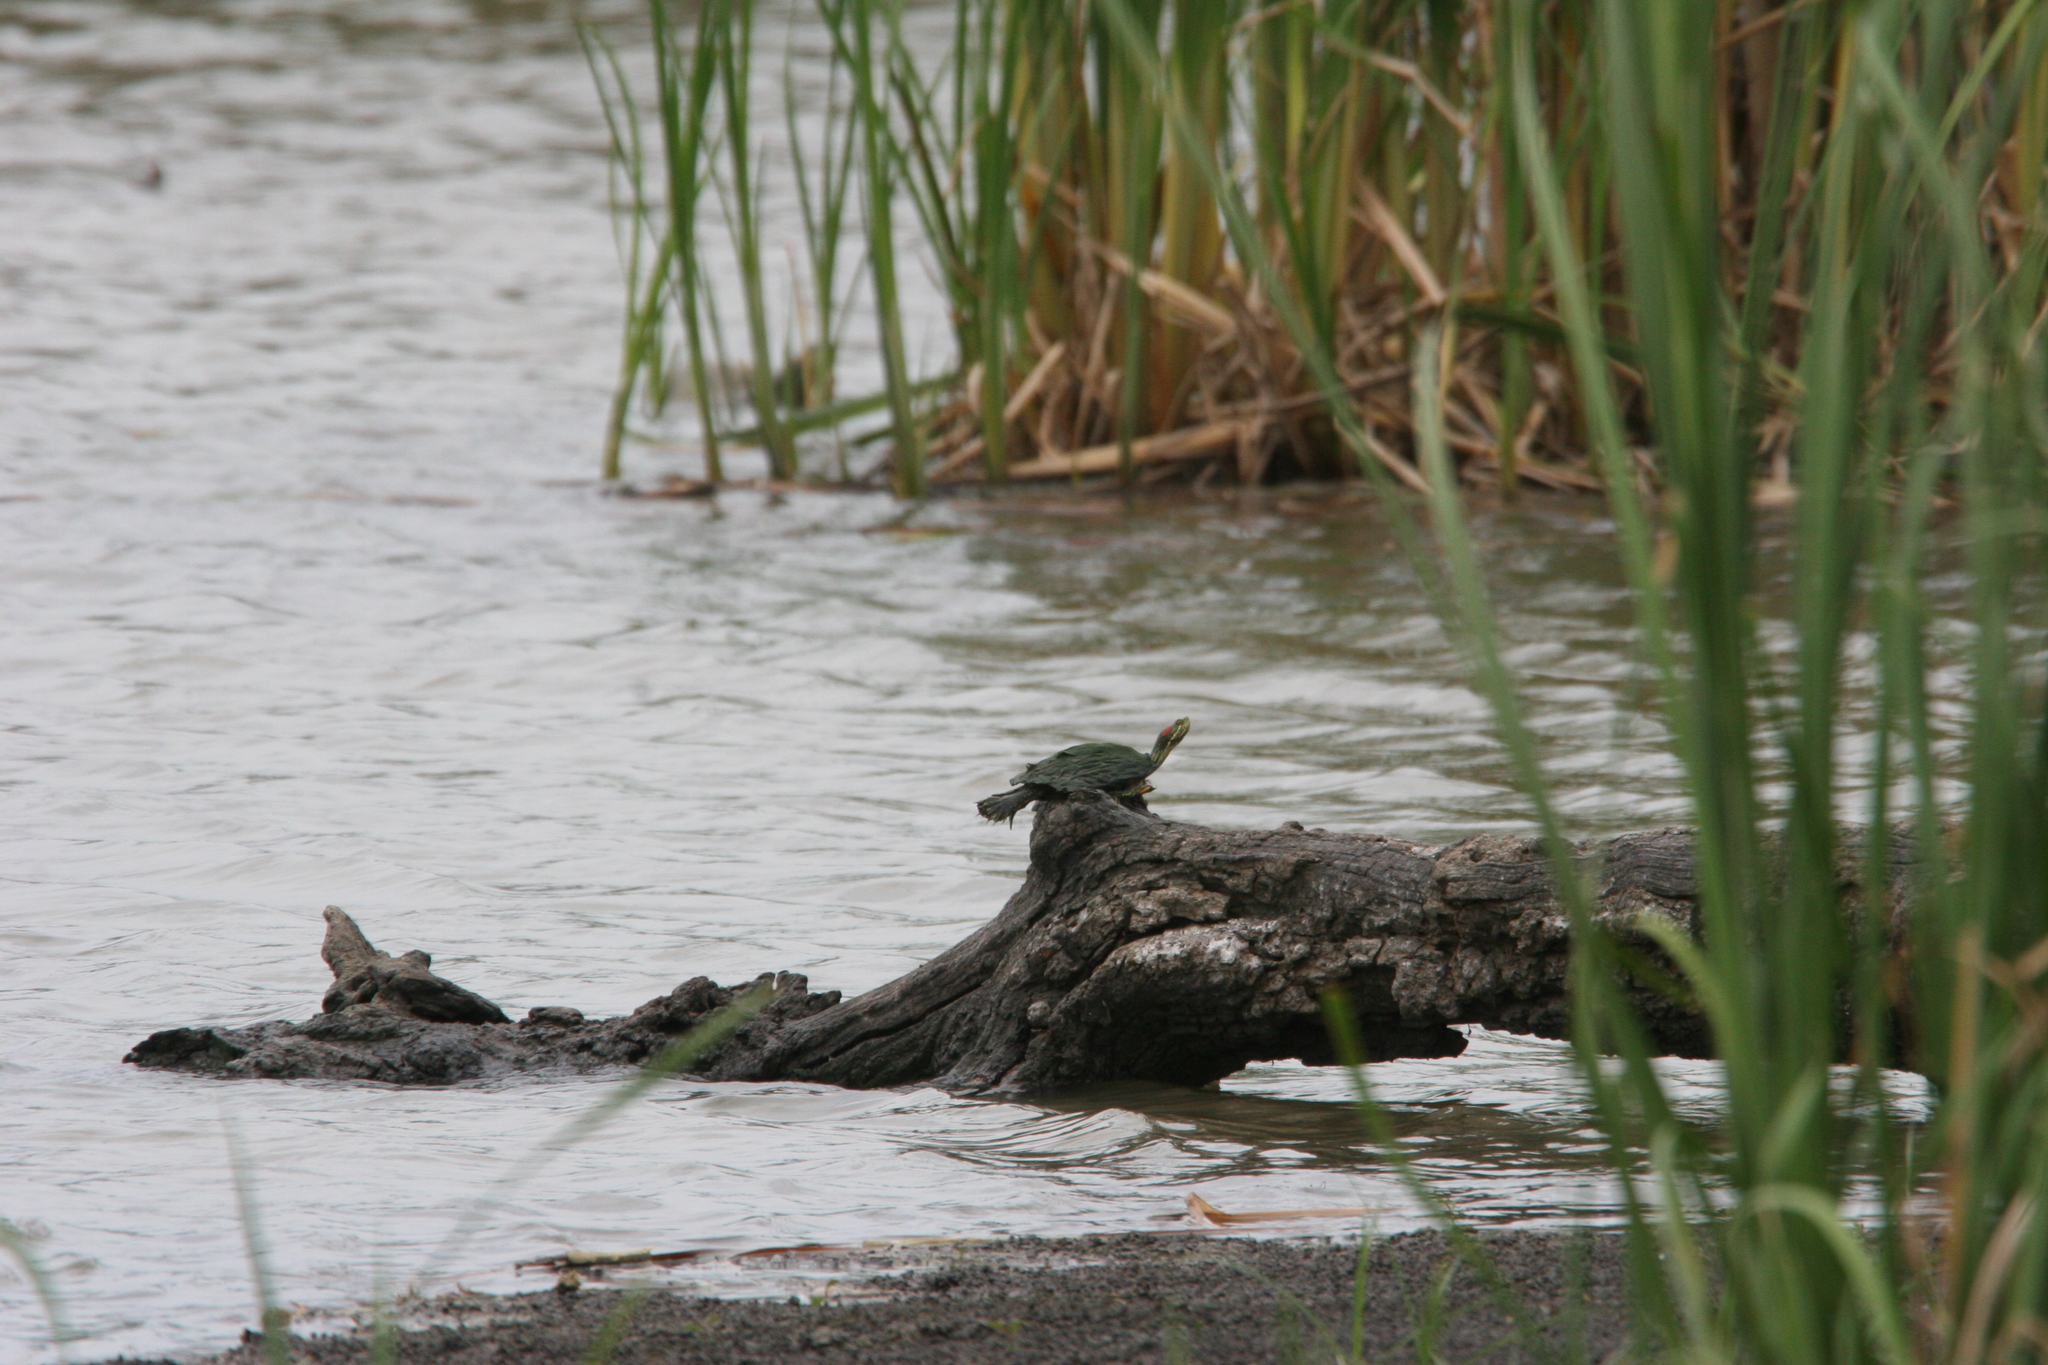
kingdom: Animalia
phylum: Chordata
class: Testudines
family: Emydidae
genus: Trachemys
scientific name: Trachemys scripta
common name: Slider
